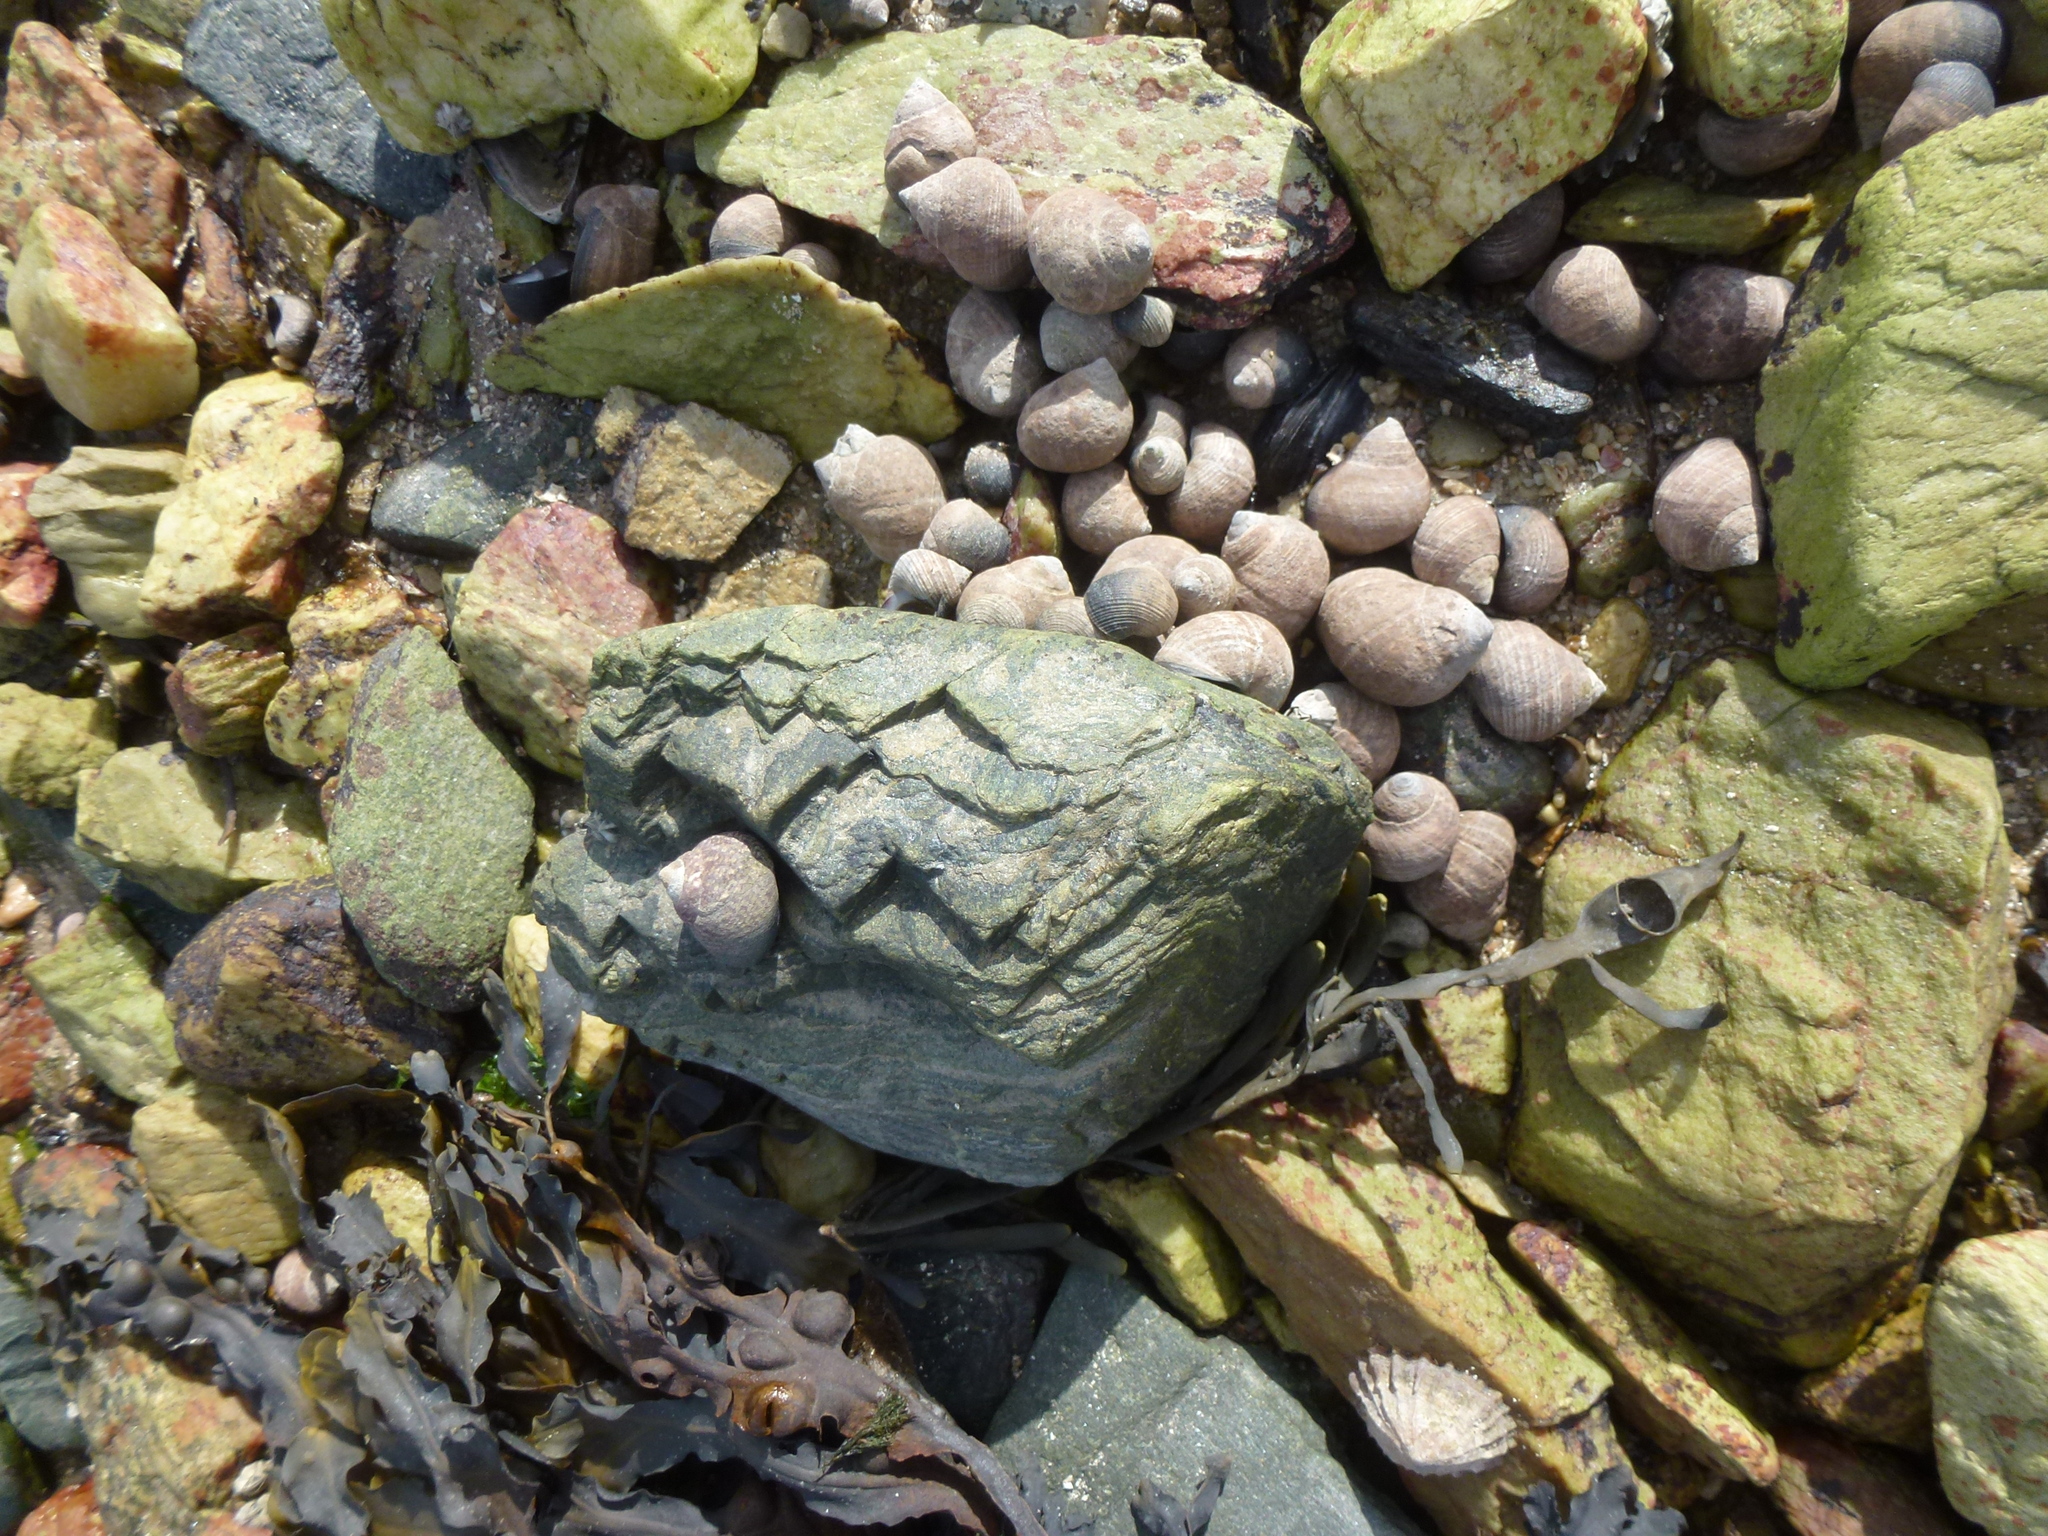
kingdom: Animalia
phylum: Mollusca
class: Gastropoda
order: Littorinimorpha
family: Littorinidae
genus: Littorina
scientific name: Littorina littorea
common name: Common periwinkle
